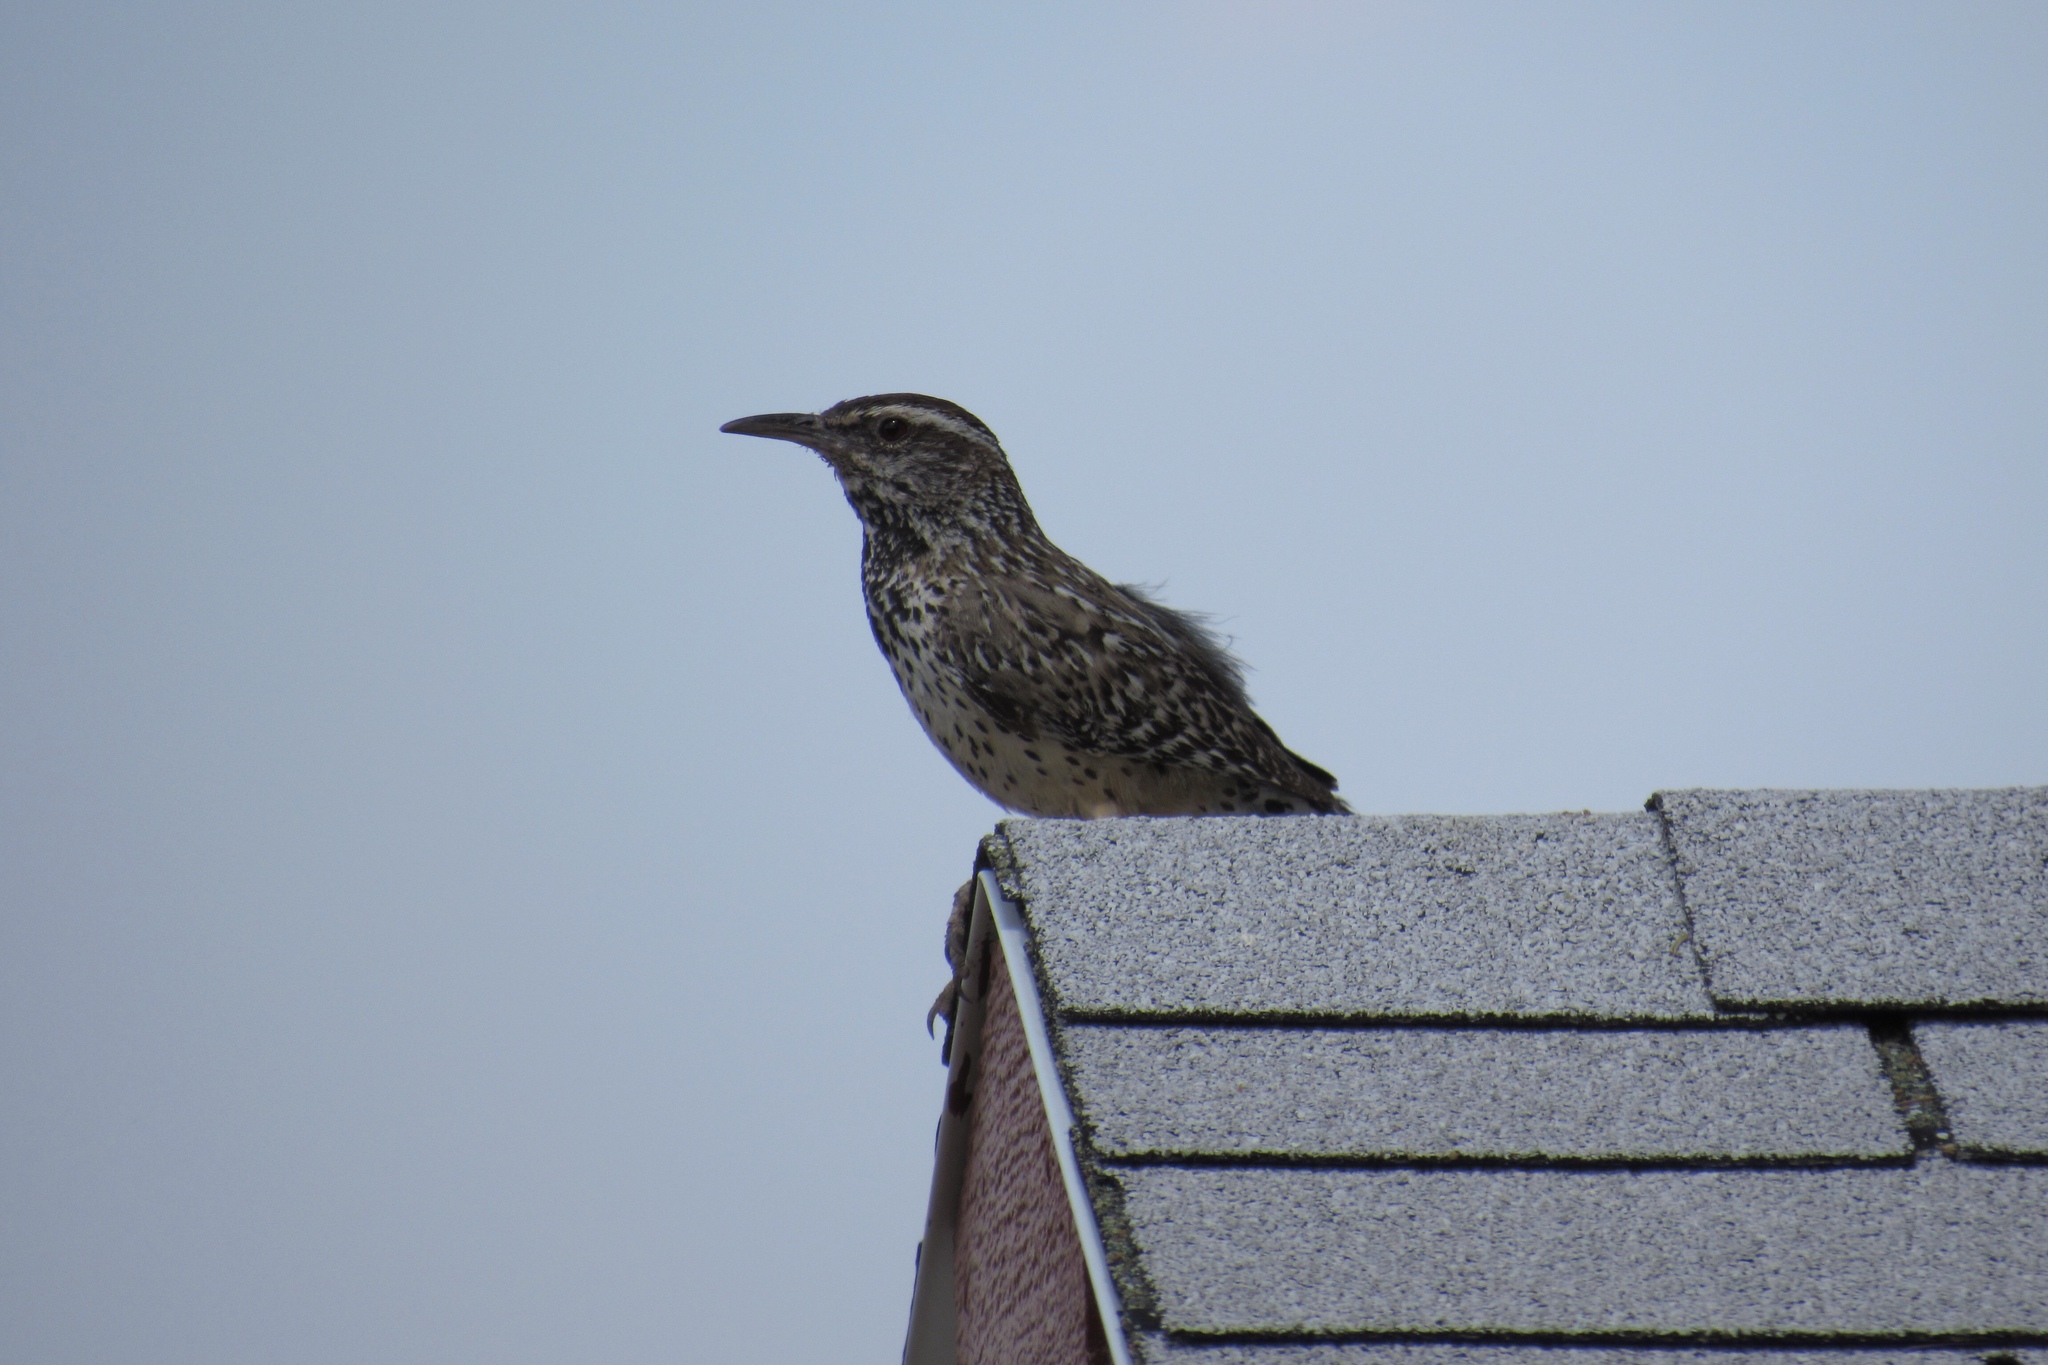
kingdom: Animalia
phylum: Chordata
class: Aves
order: Passeriformes
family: Troglodytidae
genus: Campylorhynchus
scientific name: Campylorhynchus brunneicapillus
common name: Cactus wren
